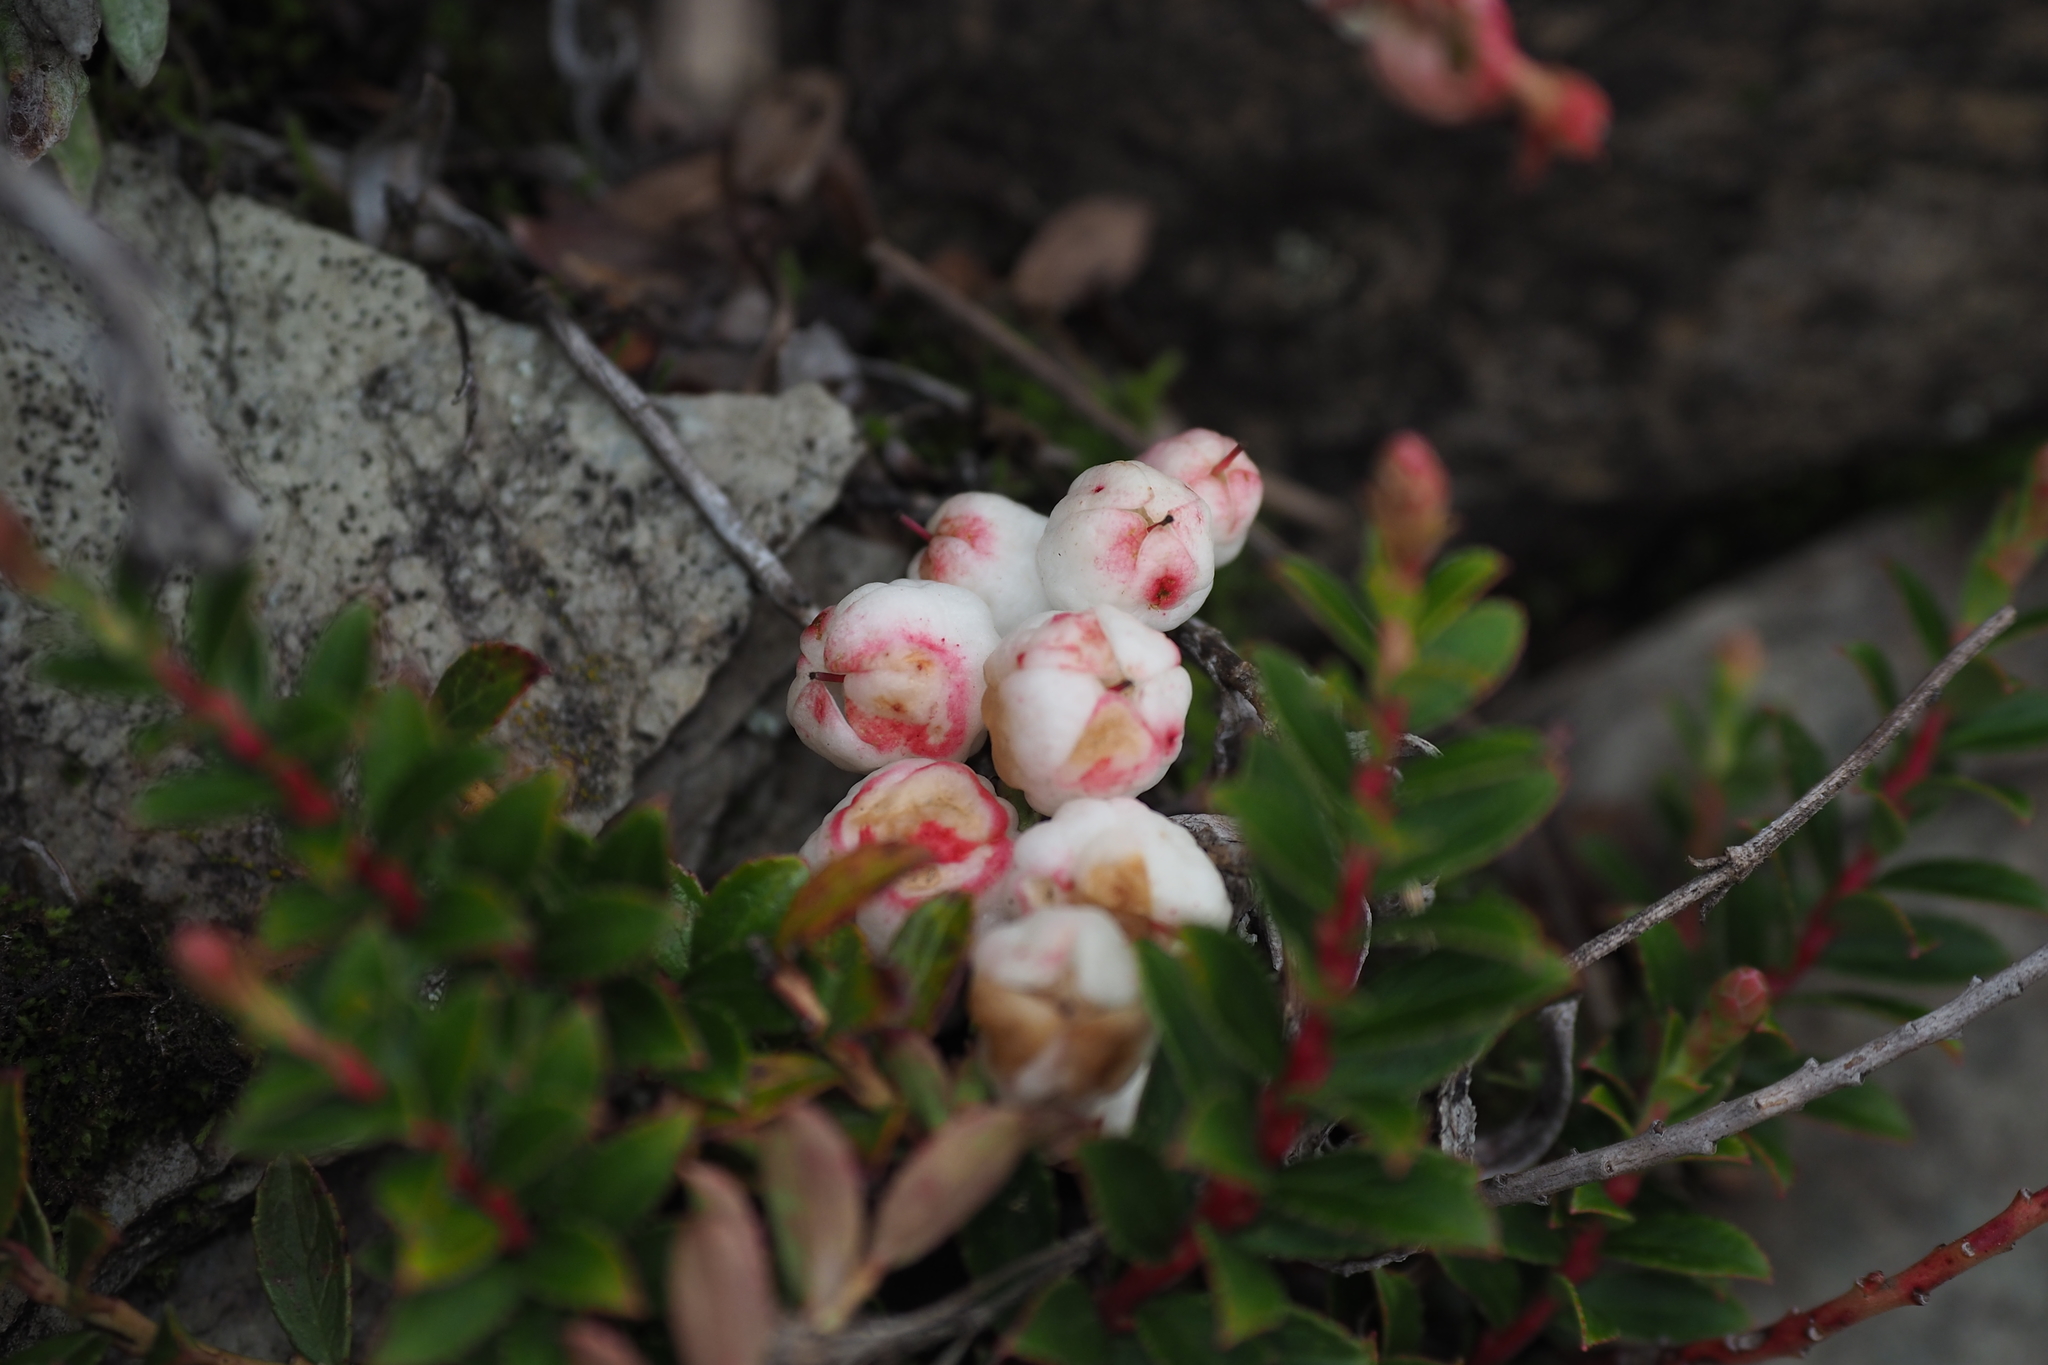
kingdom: Plantae
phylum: Tracheophyta
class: Magnoliopsida
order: Ericales
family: Ericaceae
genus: Gaultheria
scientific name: Gaultheria borneensis
